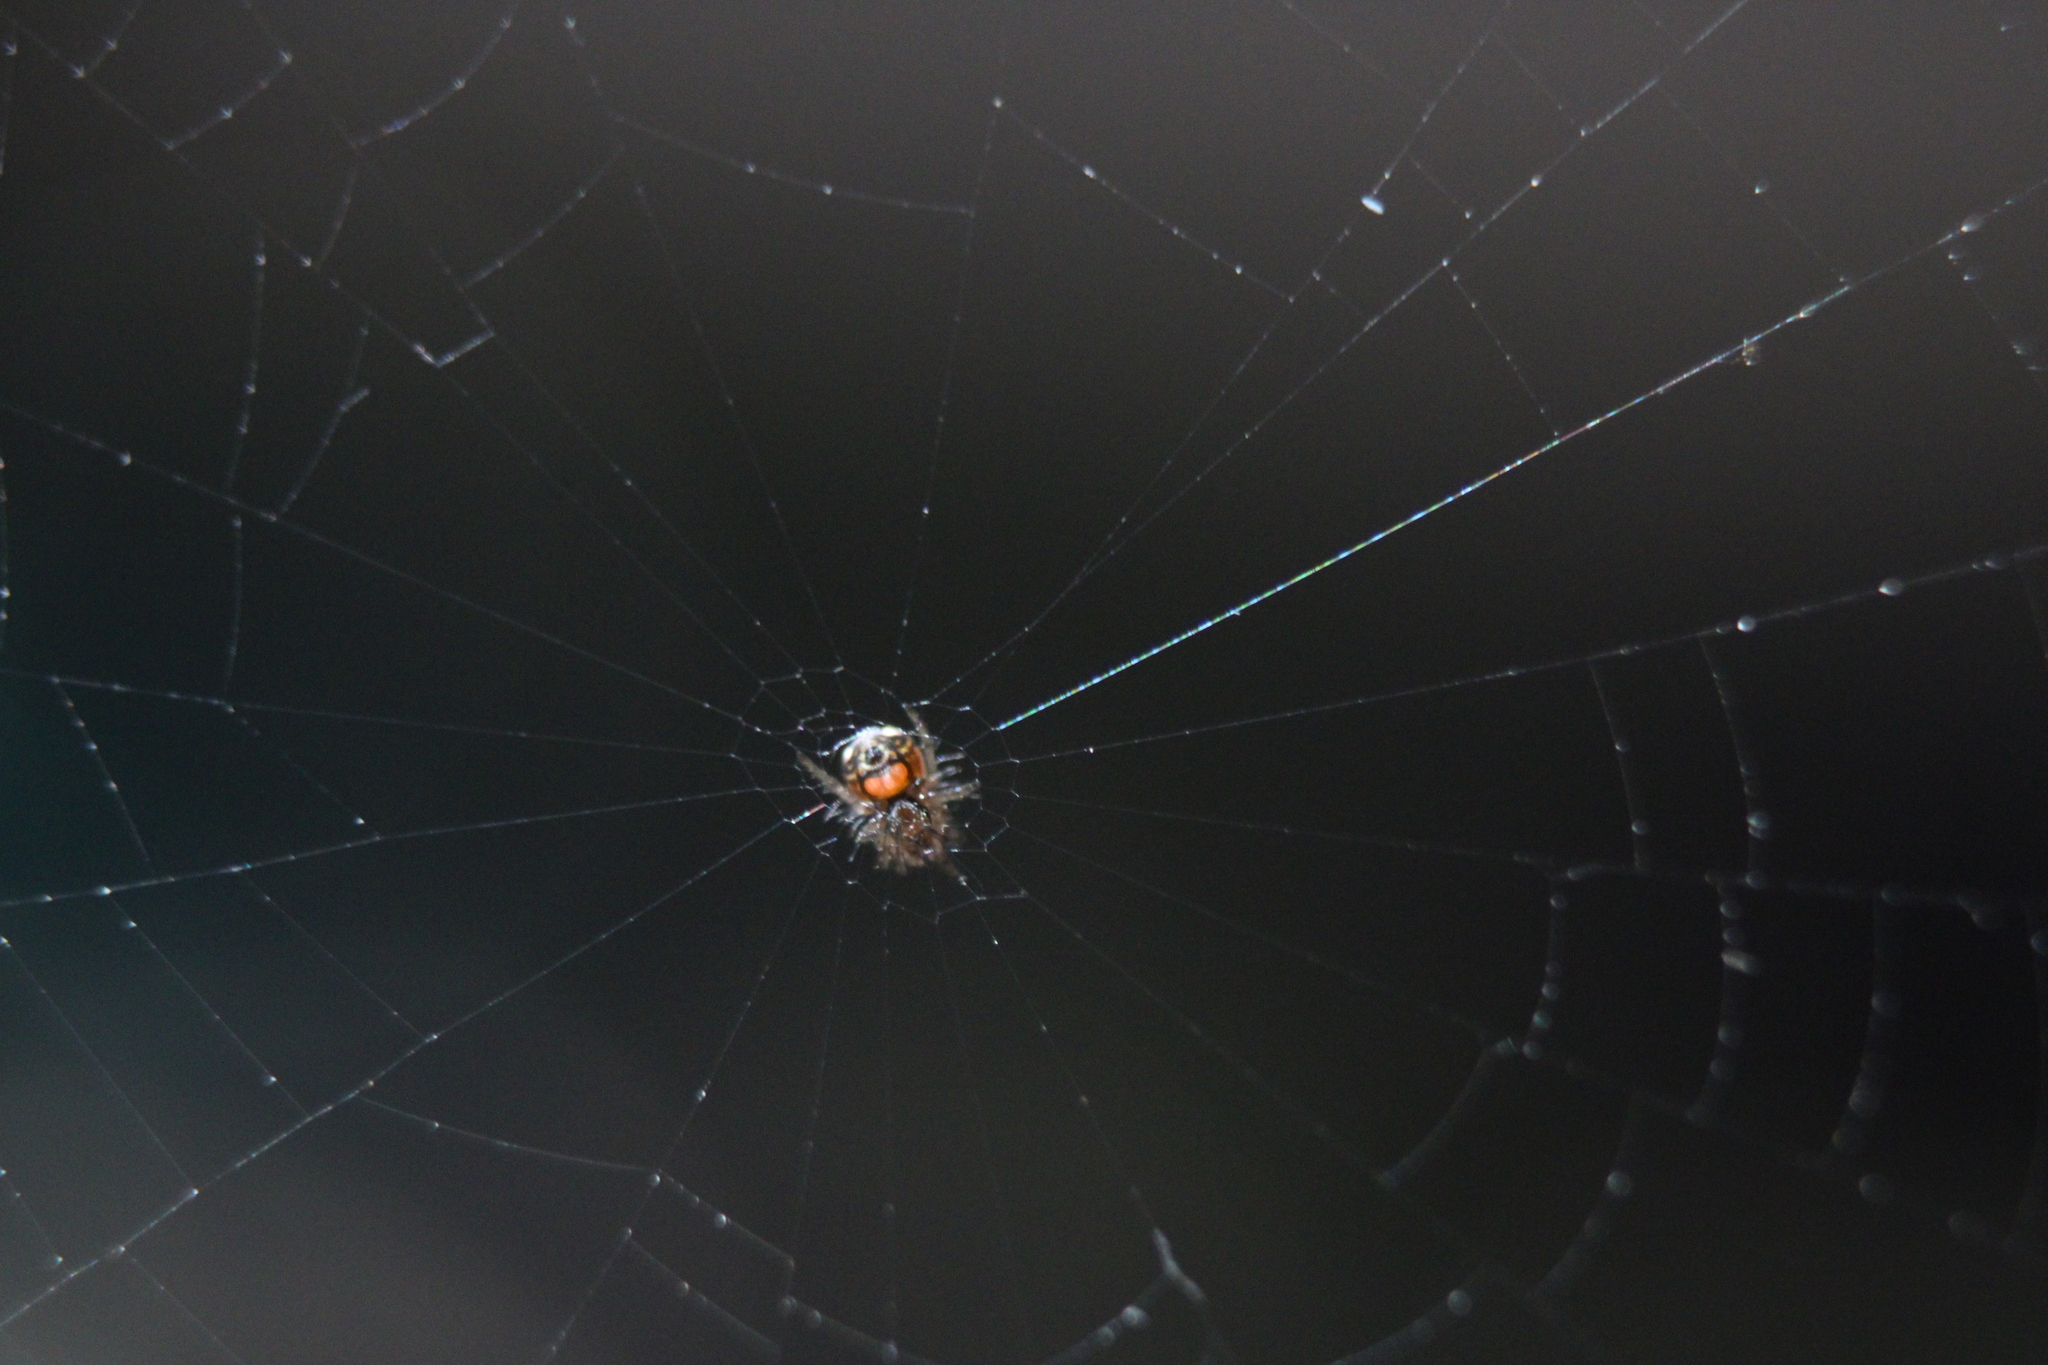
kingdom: Animalia
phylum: Arthropoda
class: Arachnida
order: Araneae
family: Tetragnathidae
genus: Leucauge
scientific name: Leucauge venusta
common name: Longjawed orb weavers
